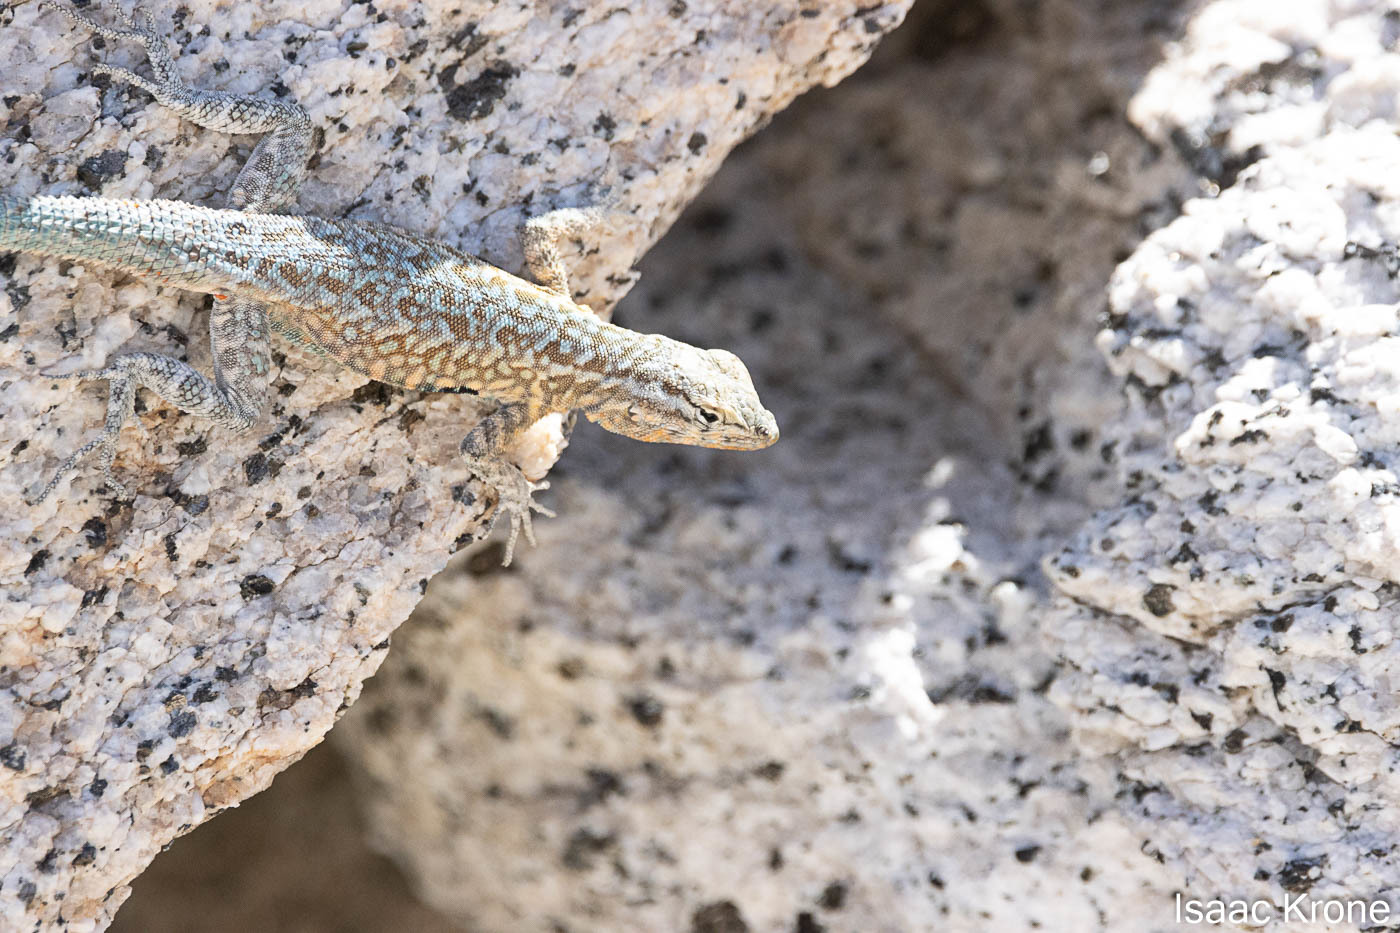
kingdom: Animalia
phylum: Chordata
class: Squamata
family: Phrynosomatidae
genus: Uta
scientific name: Uta stansburiana
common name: Side-blotched lizard
